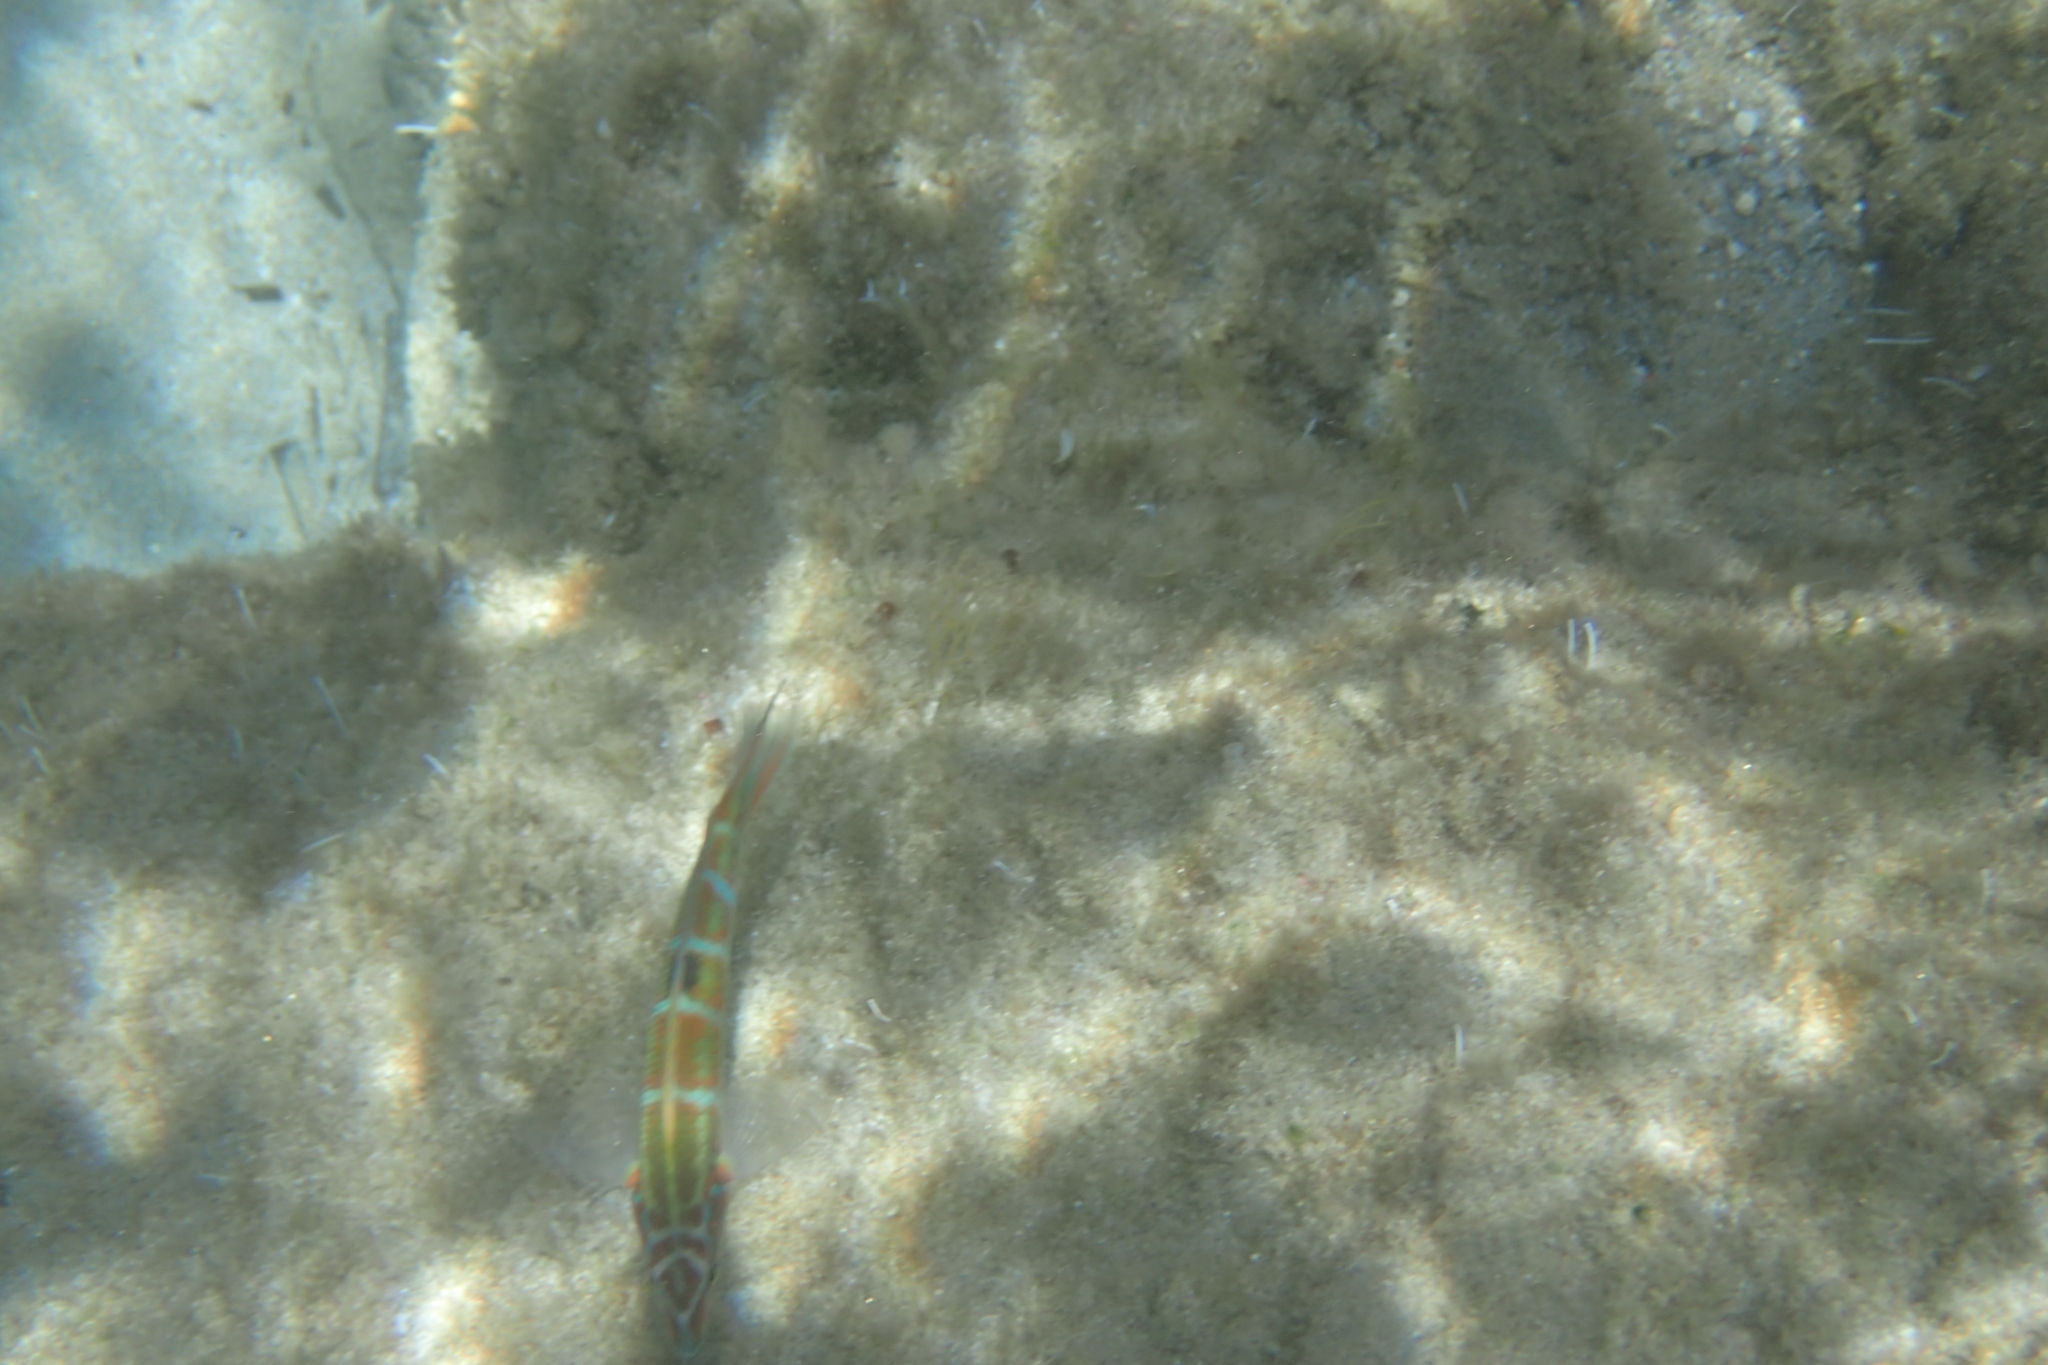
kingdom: Animalia
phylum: Chordata
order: Perciformes
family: Labridae
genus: Thalassoma
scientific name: Thalassoma pavo
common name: Ornate wrasse
